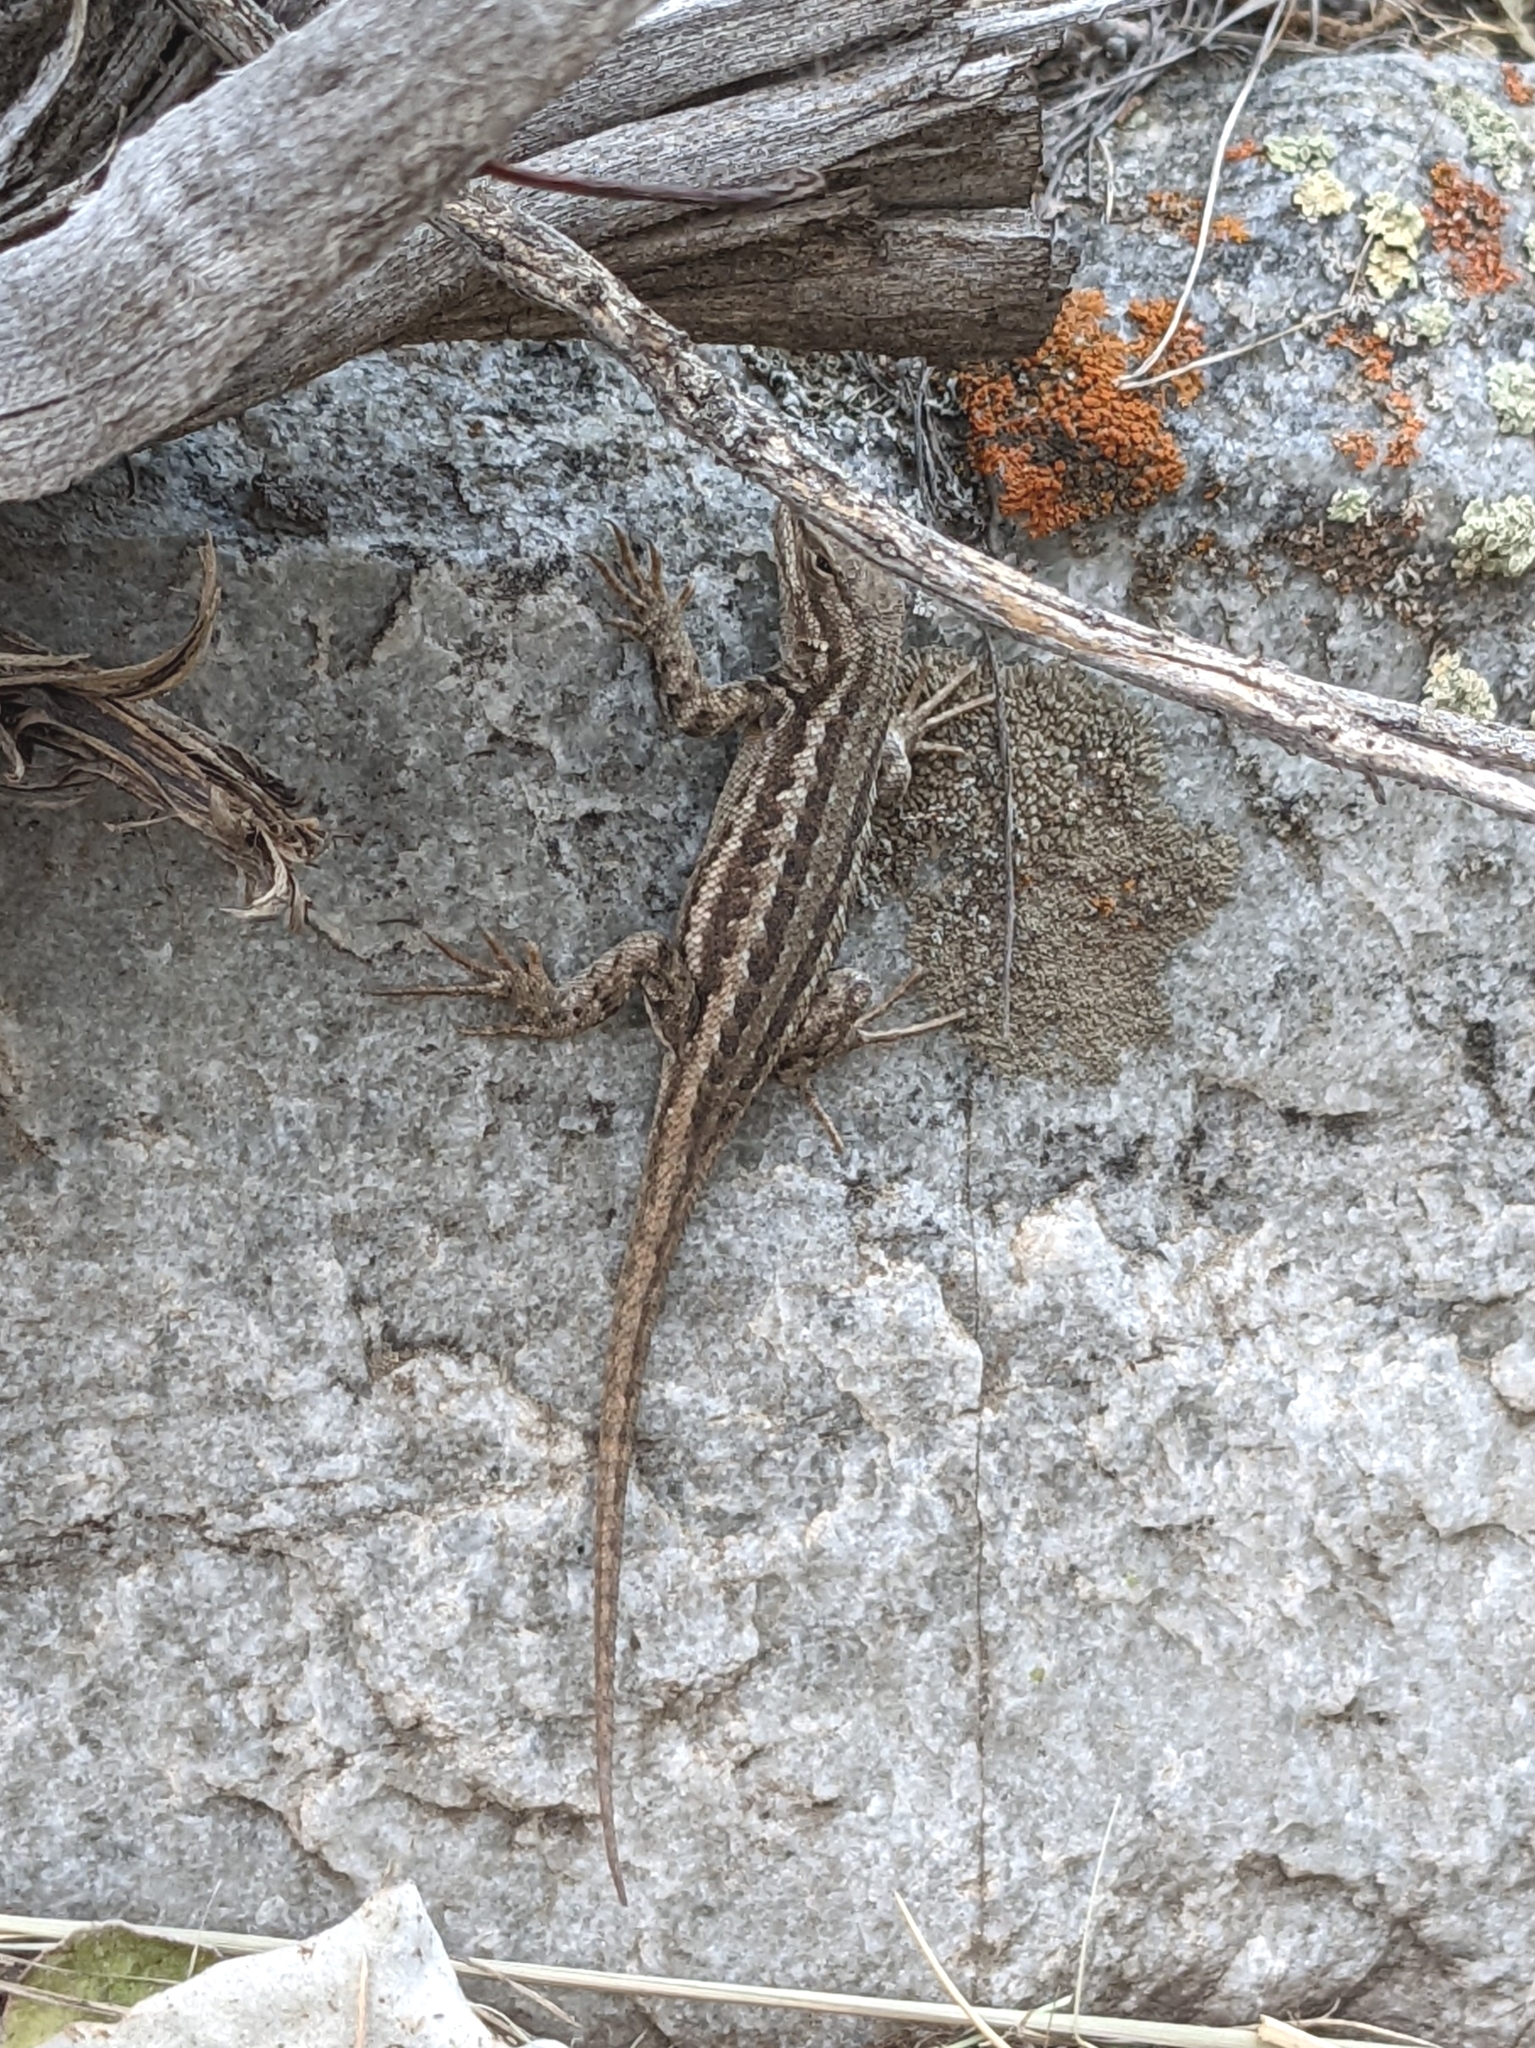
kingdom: Animalia
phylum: Chordata
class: Squamata
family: Phrynosomatidae
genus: Sceloporus
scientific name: Sceloporus graciosus
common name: Sagebrush lizard
